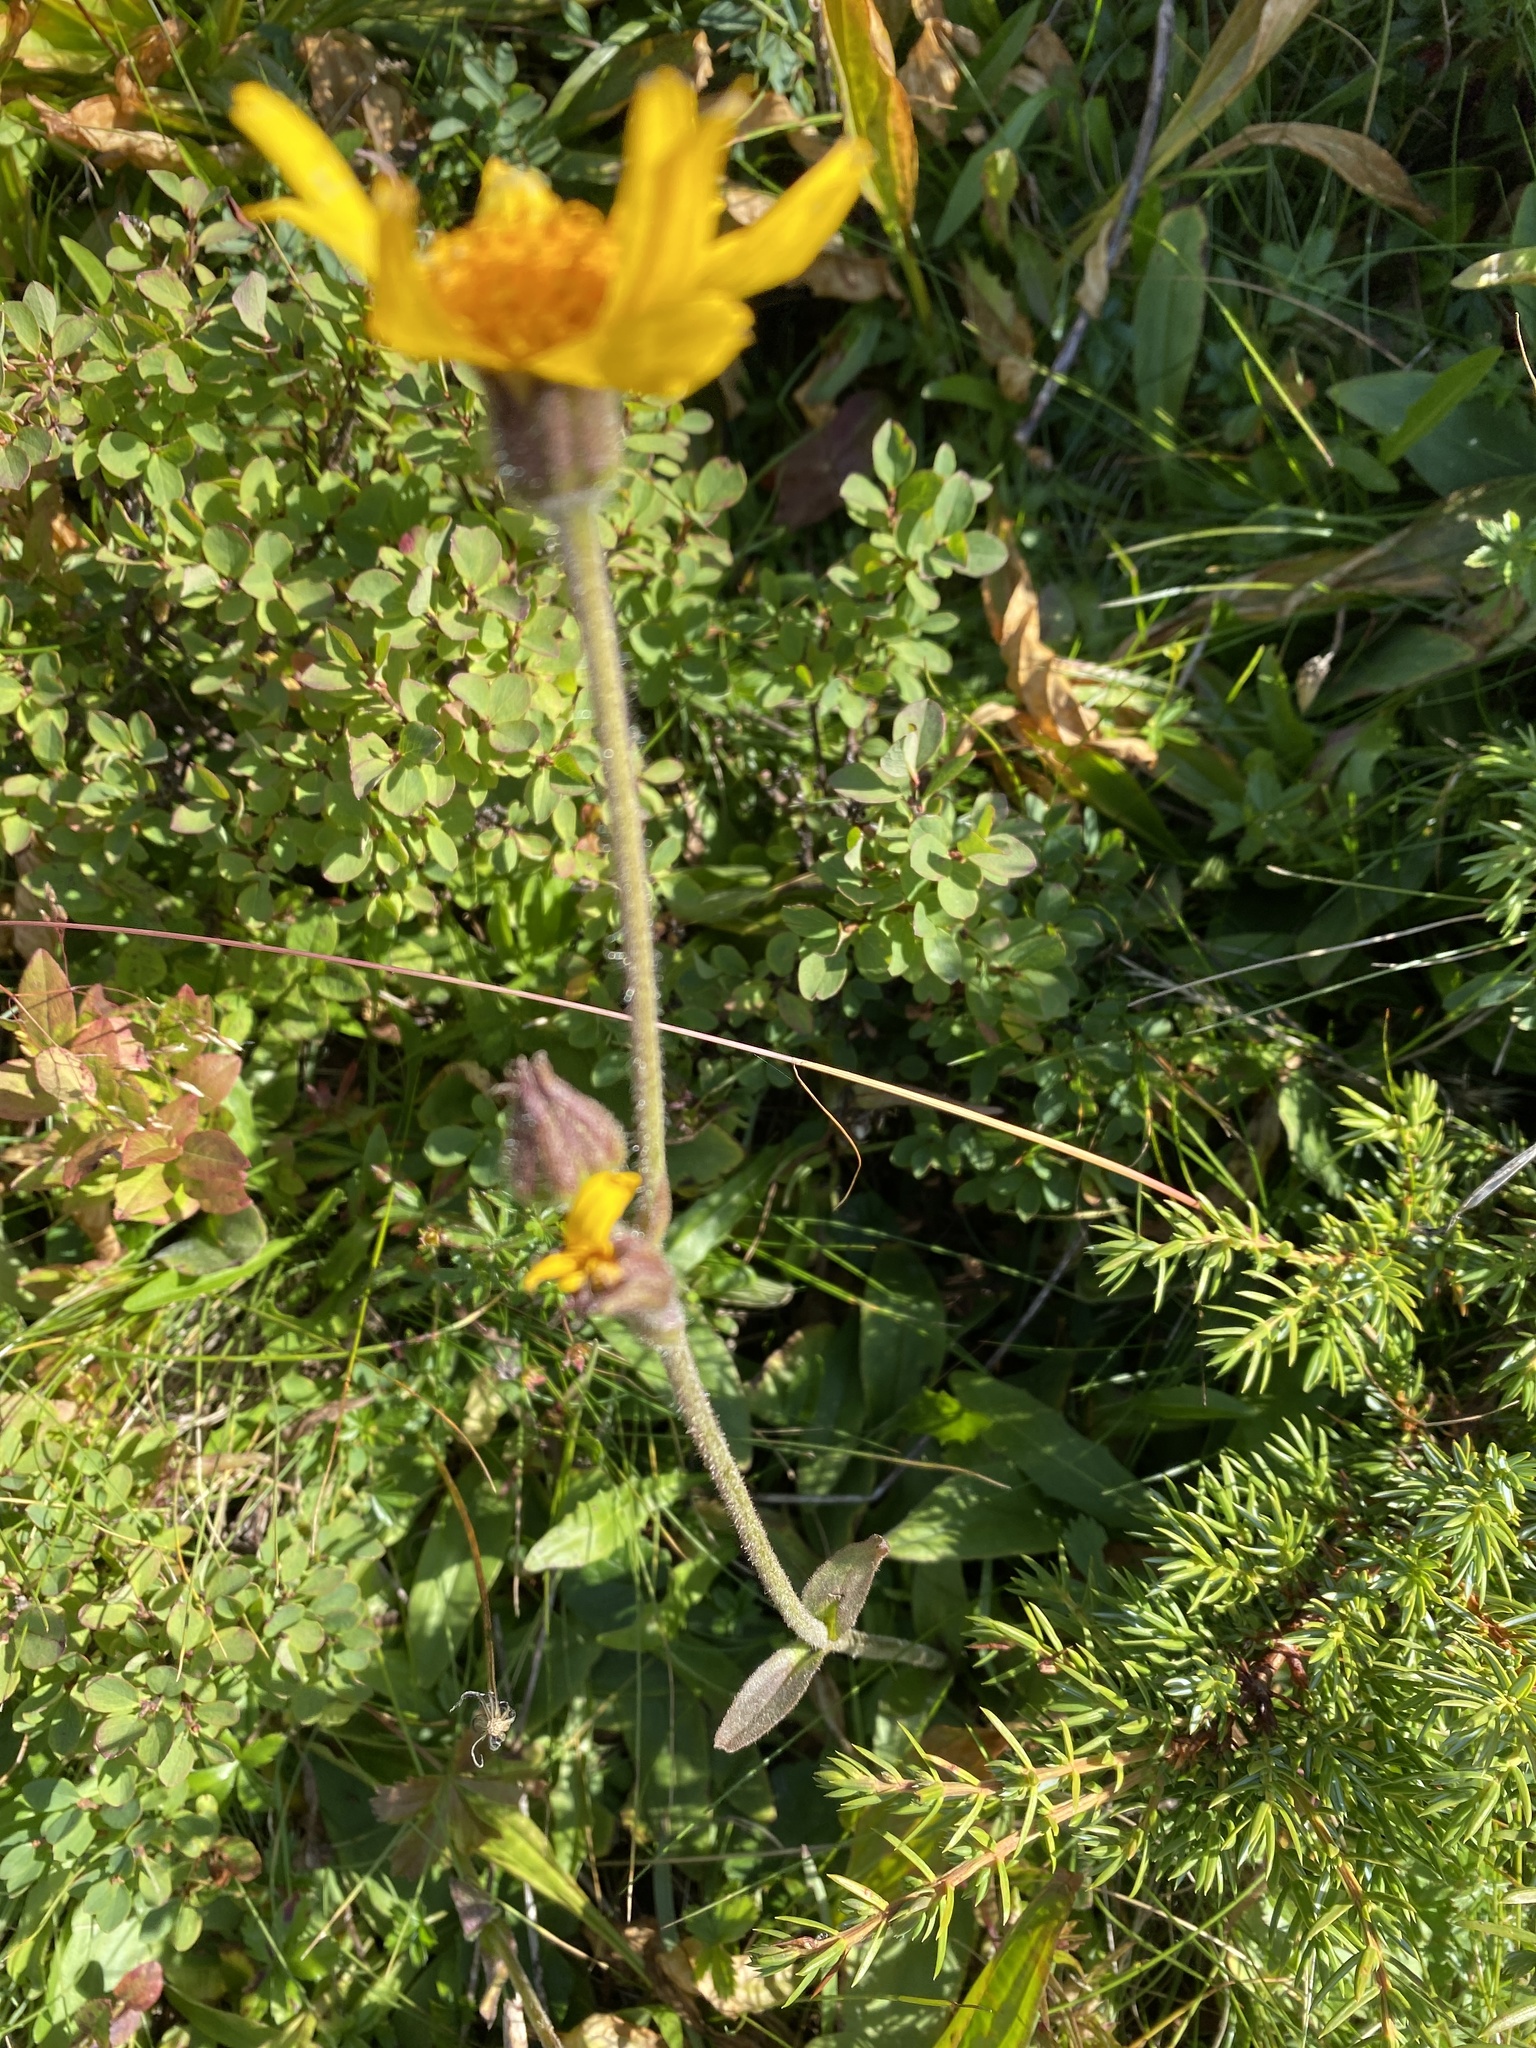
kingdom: Plantae
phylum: Tracheophyta
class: Magnoliopsida
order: Asterales
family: Asteraceae
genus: Arnica
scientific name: Arnica montana
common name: Leopard's bane
